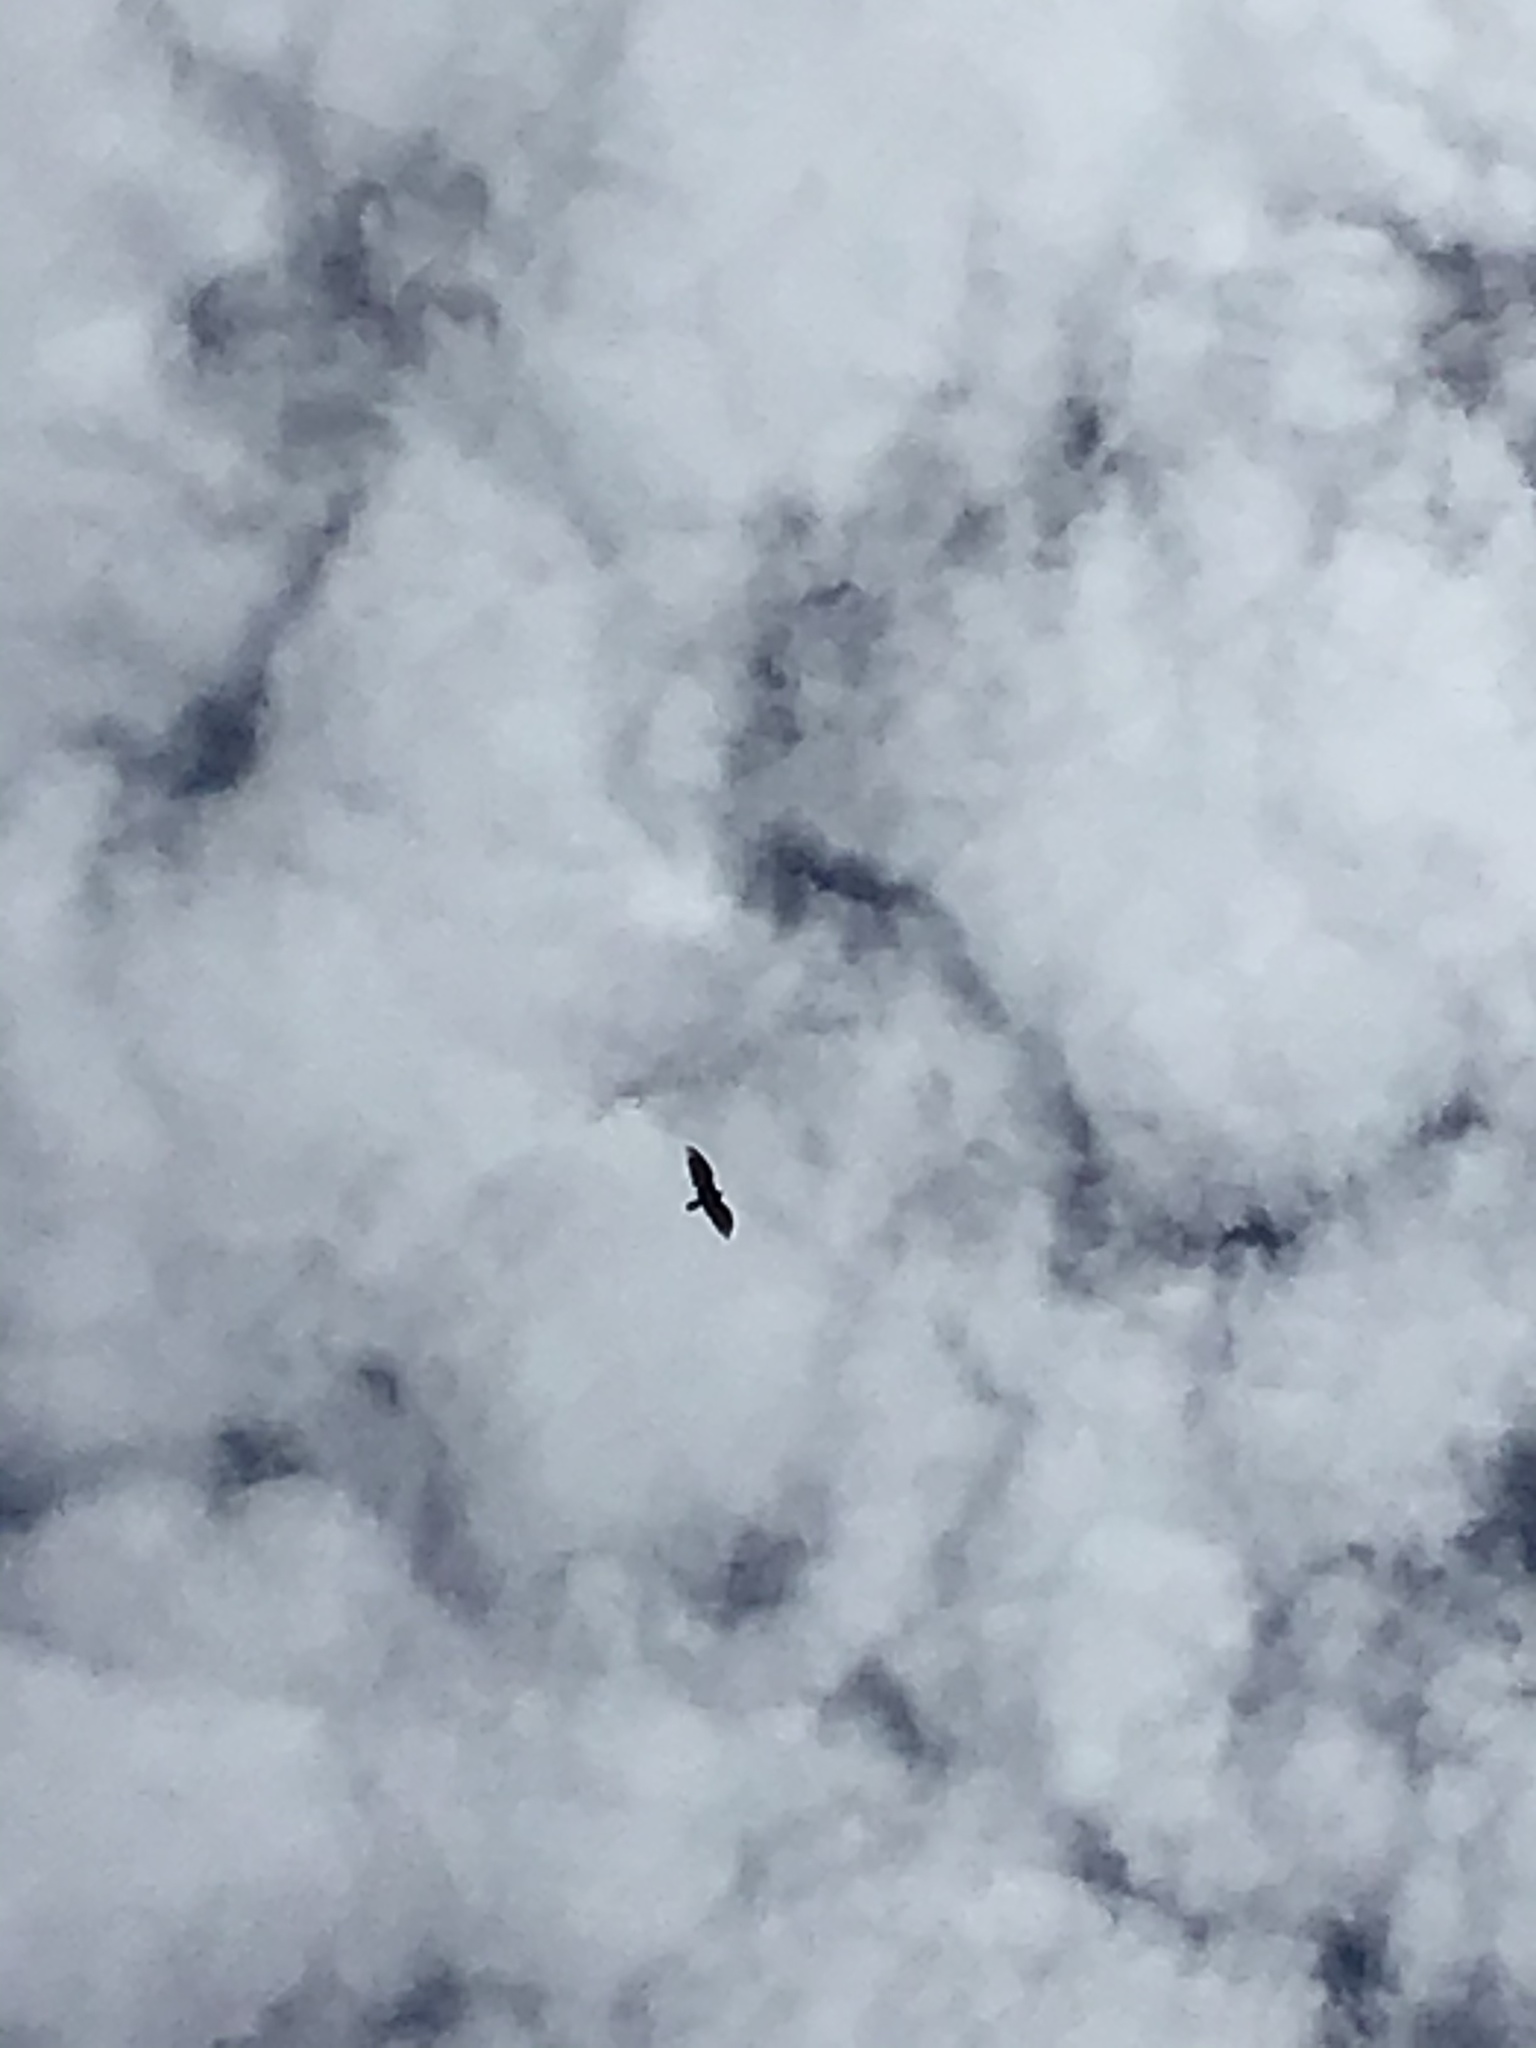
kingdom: Animalia
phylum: Chordata
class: Aves
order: Accipitriformes
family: Cathartidae
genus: Cathartes
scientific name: Cathartes aura
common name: Turkey vulture
